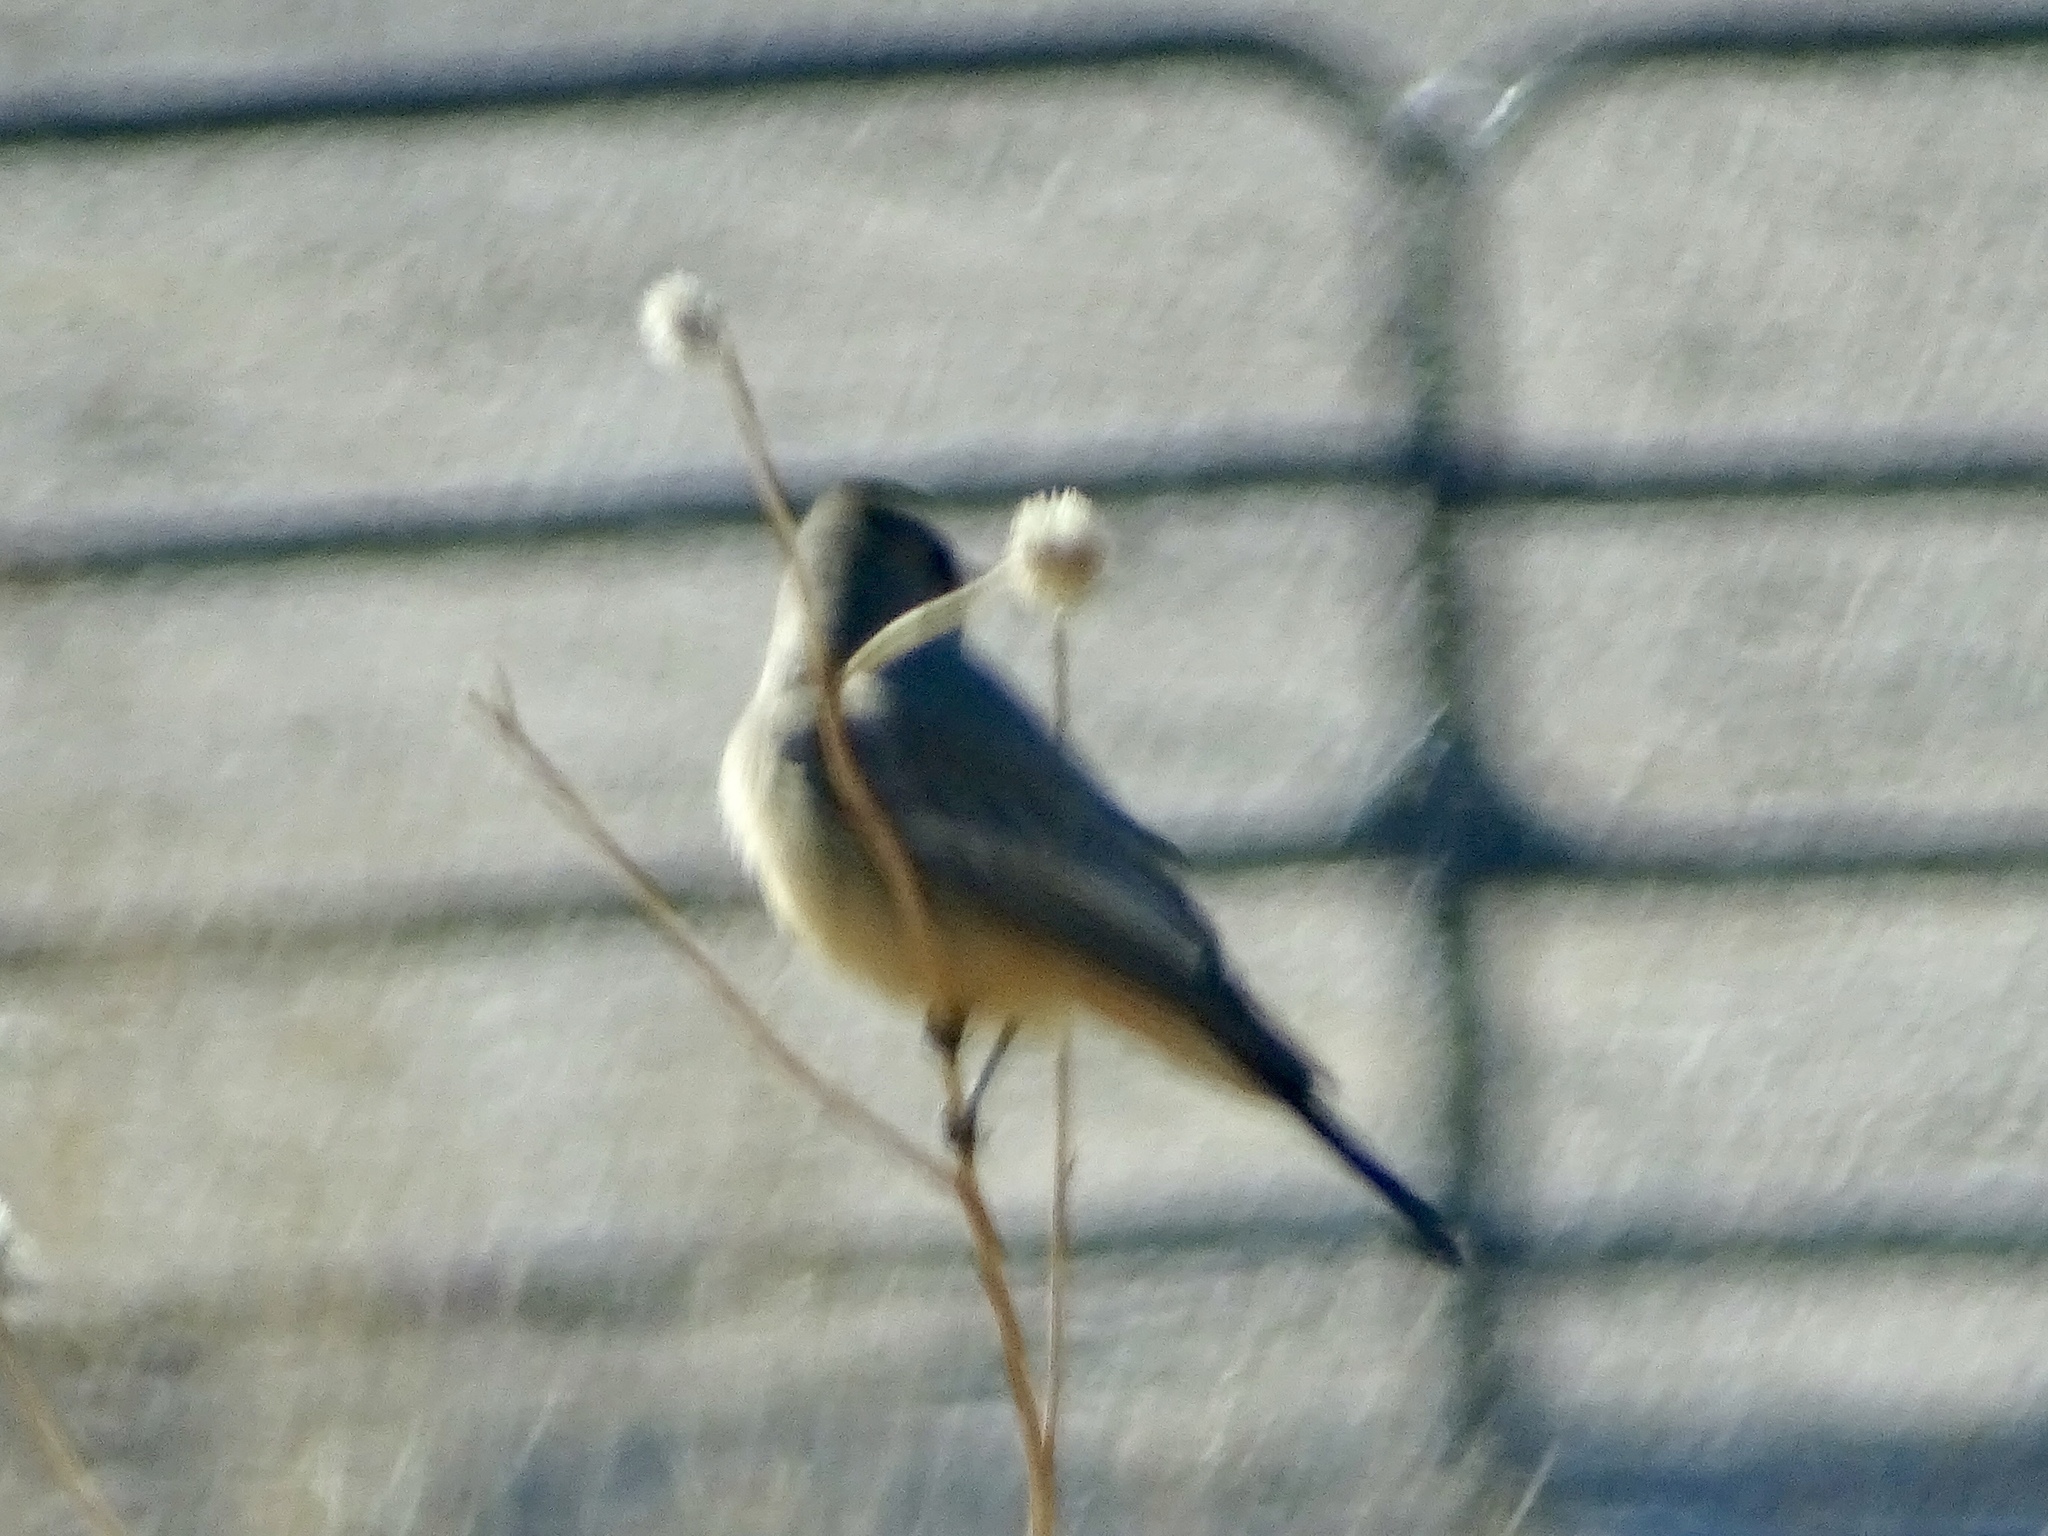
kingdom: Animalia
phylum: Chordata
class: Aves
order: Passeriformes
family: Tyrannidae
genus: Sayornis
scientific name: Sayornis saya
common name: Say's phoebe
